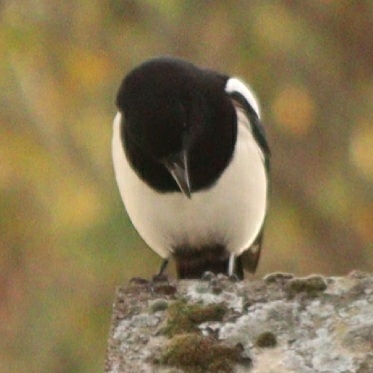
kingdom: Animalia
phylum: Chordata
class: Aves
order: Passeriformes
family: Corvidae
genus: Pica
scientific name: Pica pica
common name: Eurasian magpie
